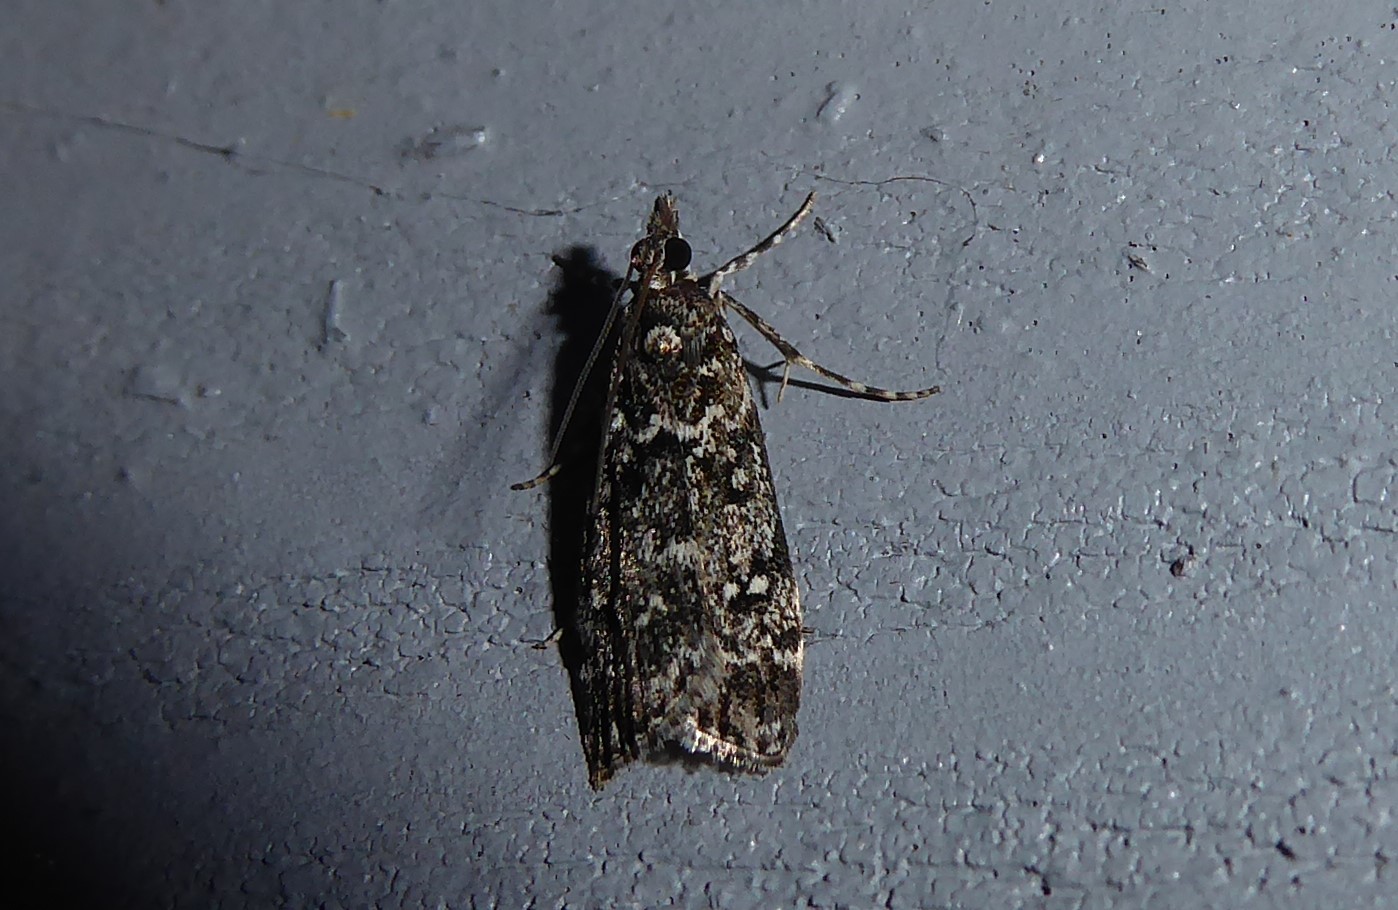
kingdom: Animalia
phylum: Arthropoda
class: Insecta
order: Lepidoptera
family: Crambidae
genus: Eudonia
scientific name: Eudonia philerga
